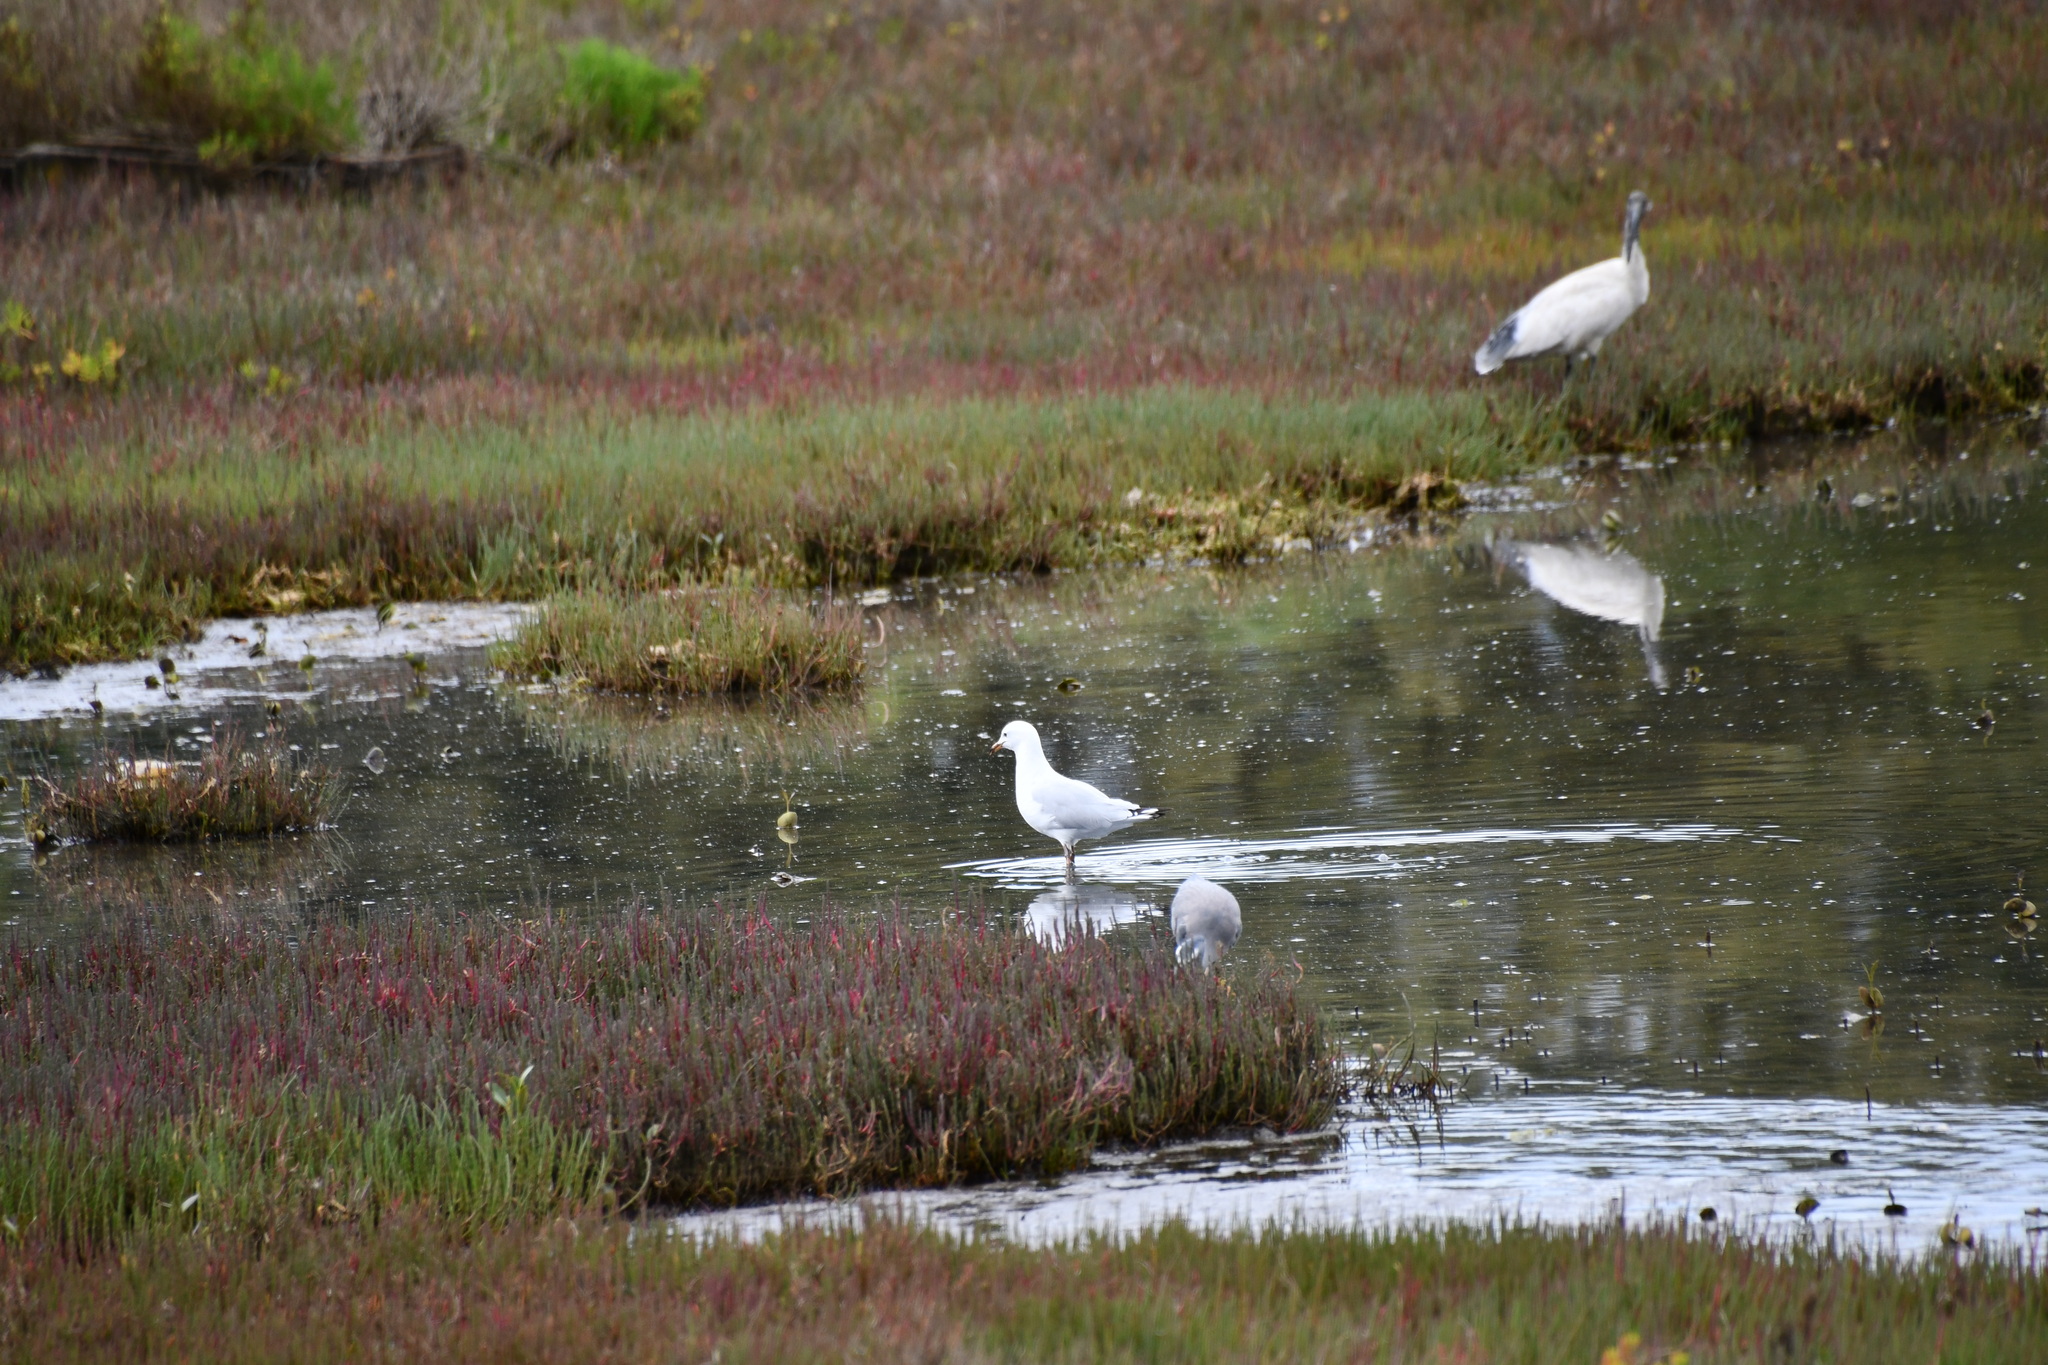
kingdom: Animalia
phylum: Chordata
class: Aves
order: Charadriiformes
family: Laridae
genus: Chroicocephalus
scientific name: Chroicocephalus novaehollandiae
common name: Silver gull
